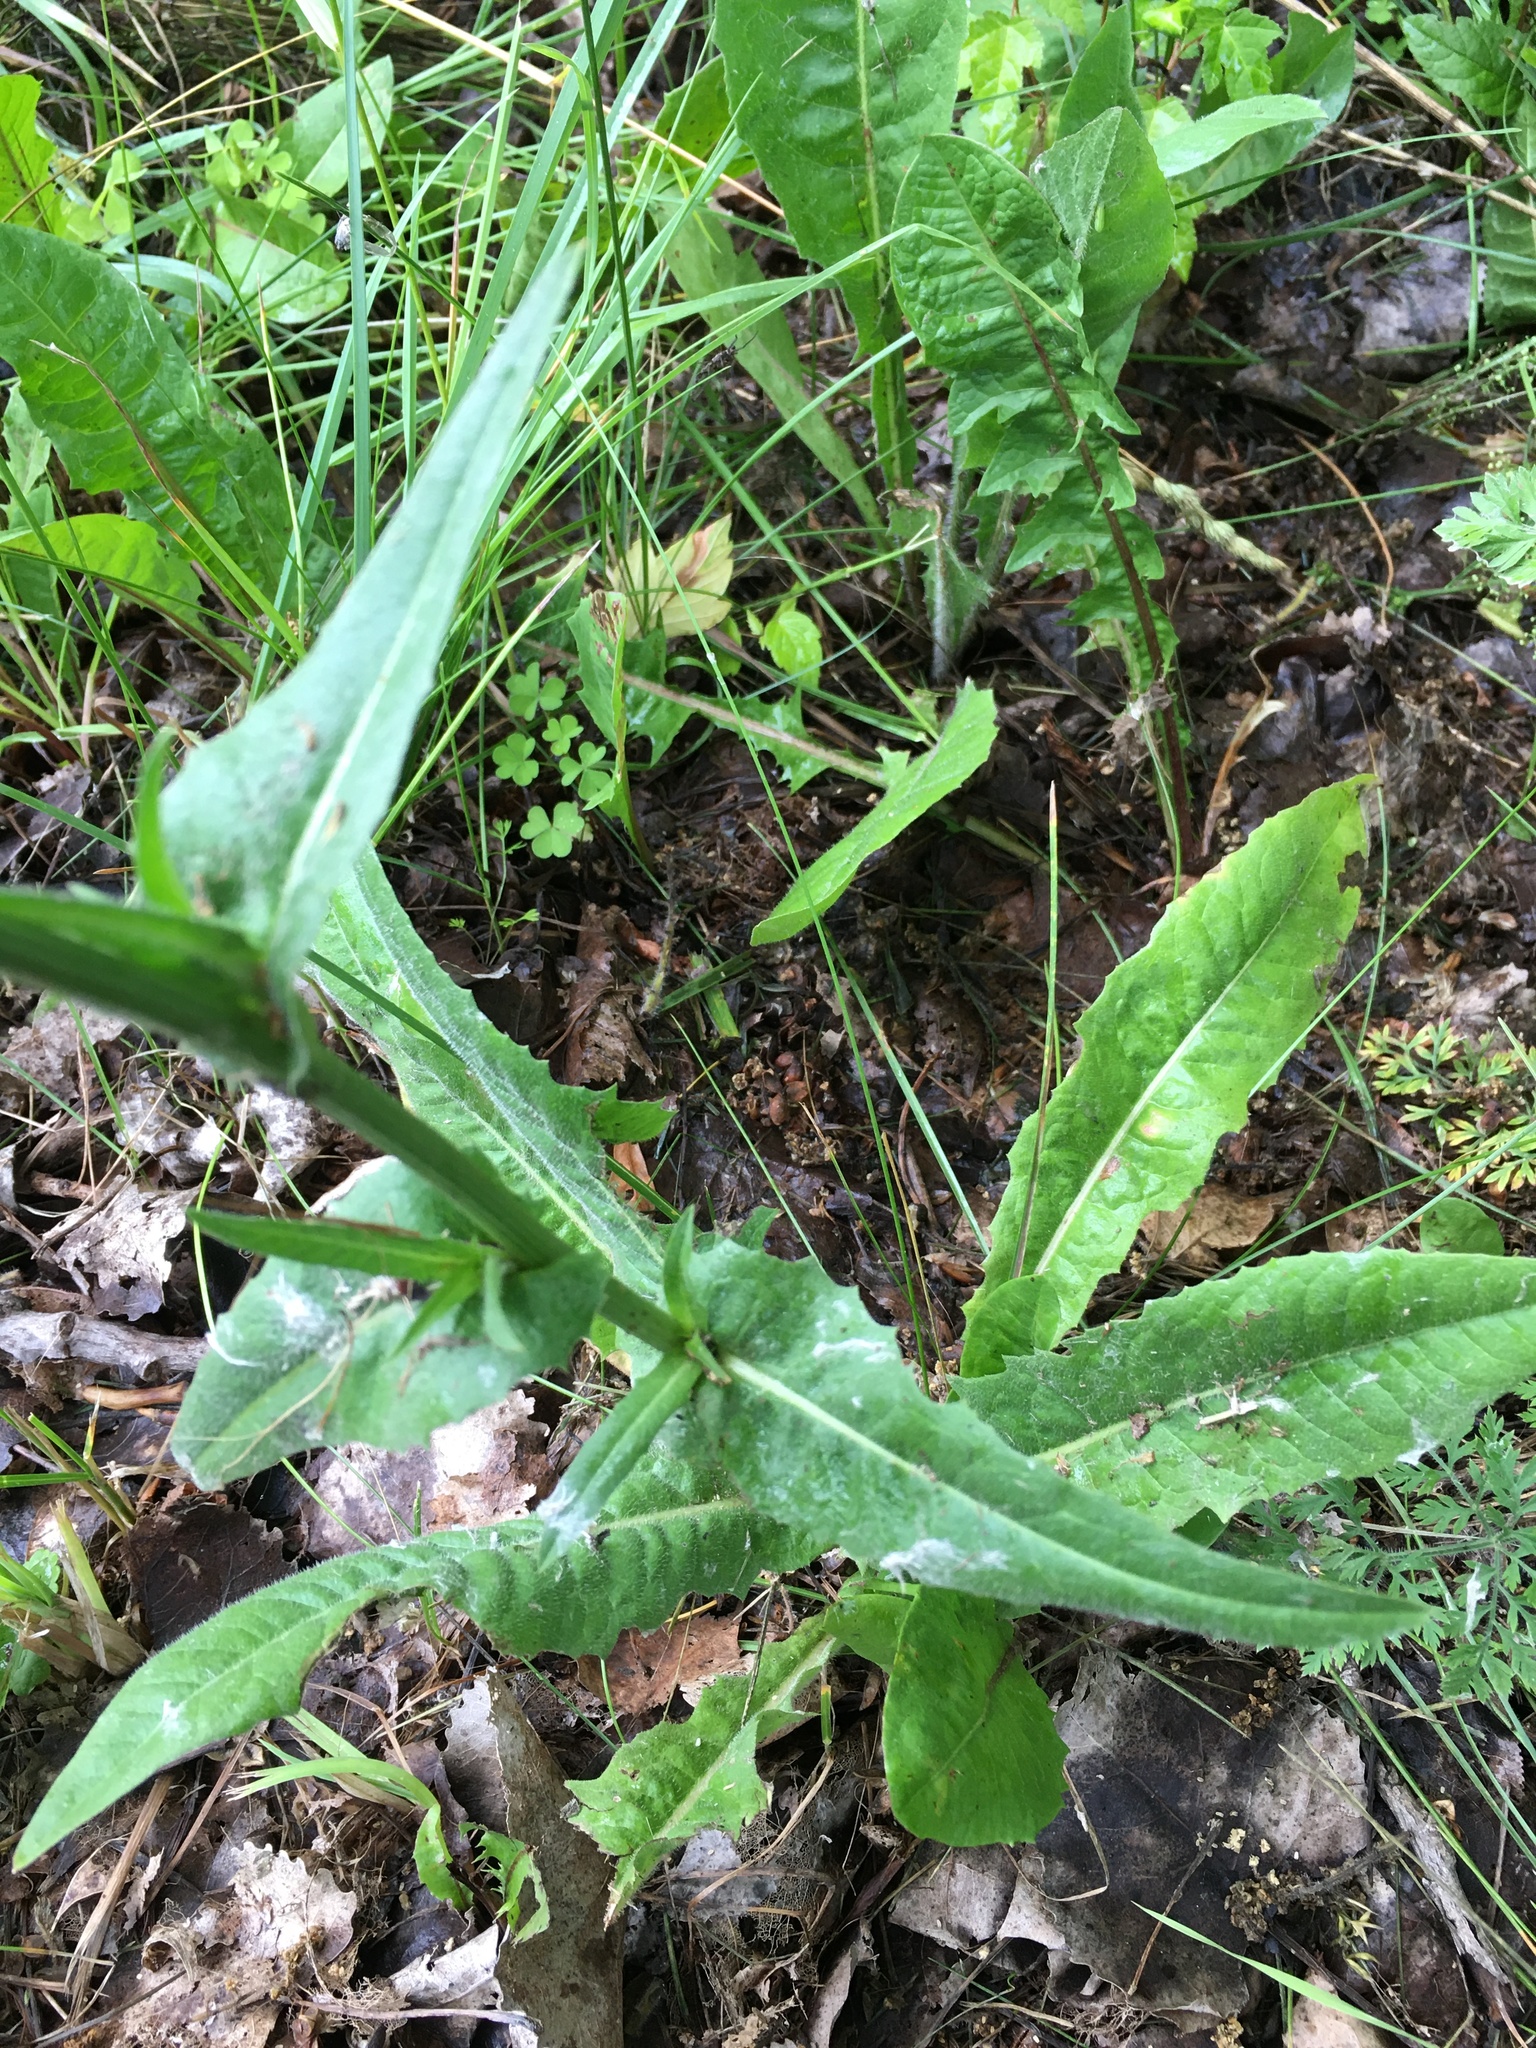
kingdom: Plantae
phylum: Tracheophyta
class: Magnoliopsida
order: Asterales
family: Asteraceae
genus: Cichorium
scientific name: Cichorium intybus
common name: Chicory
